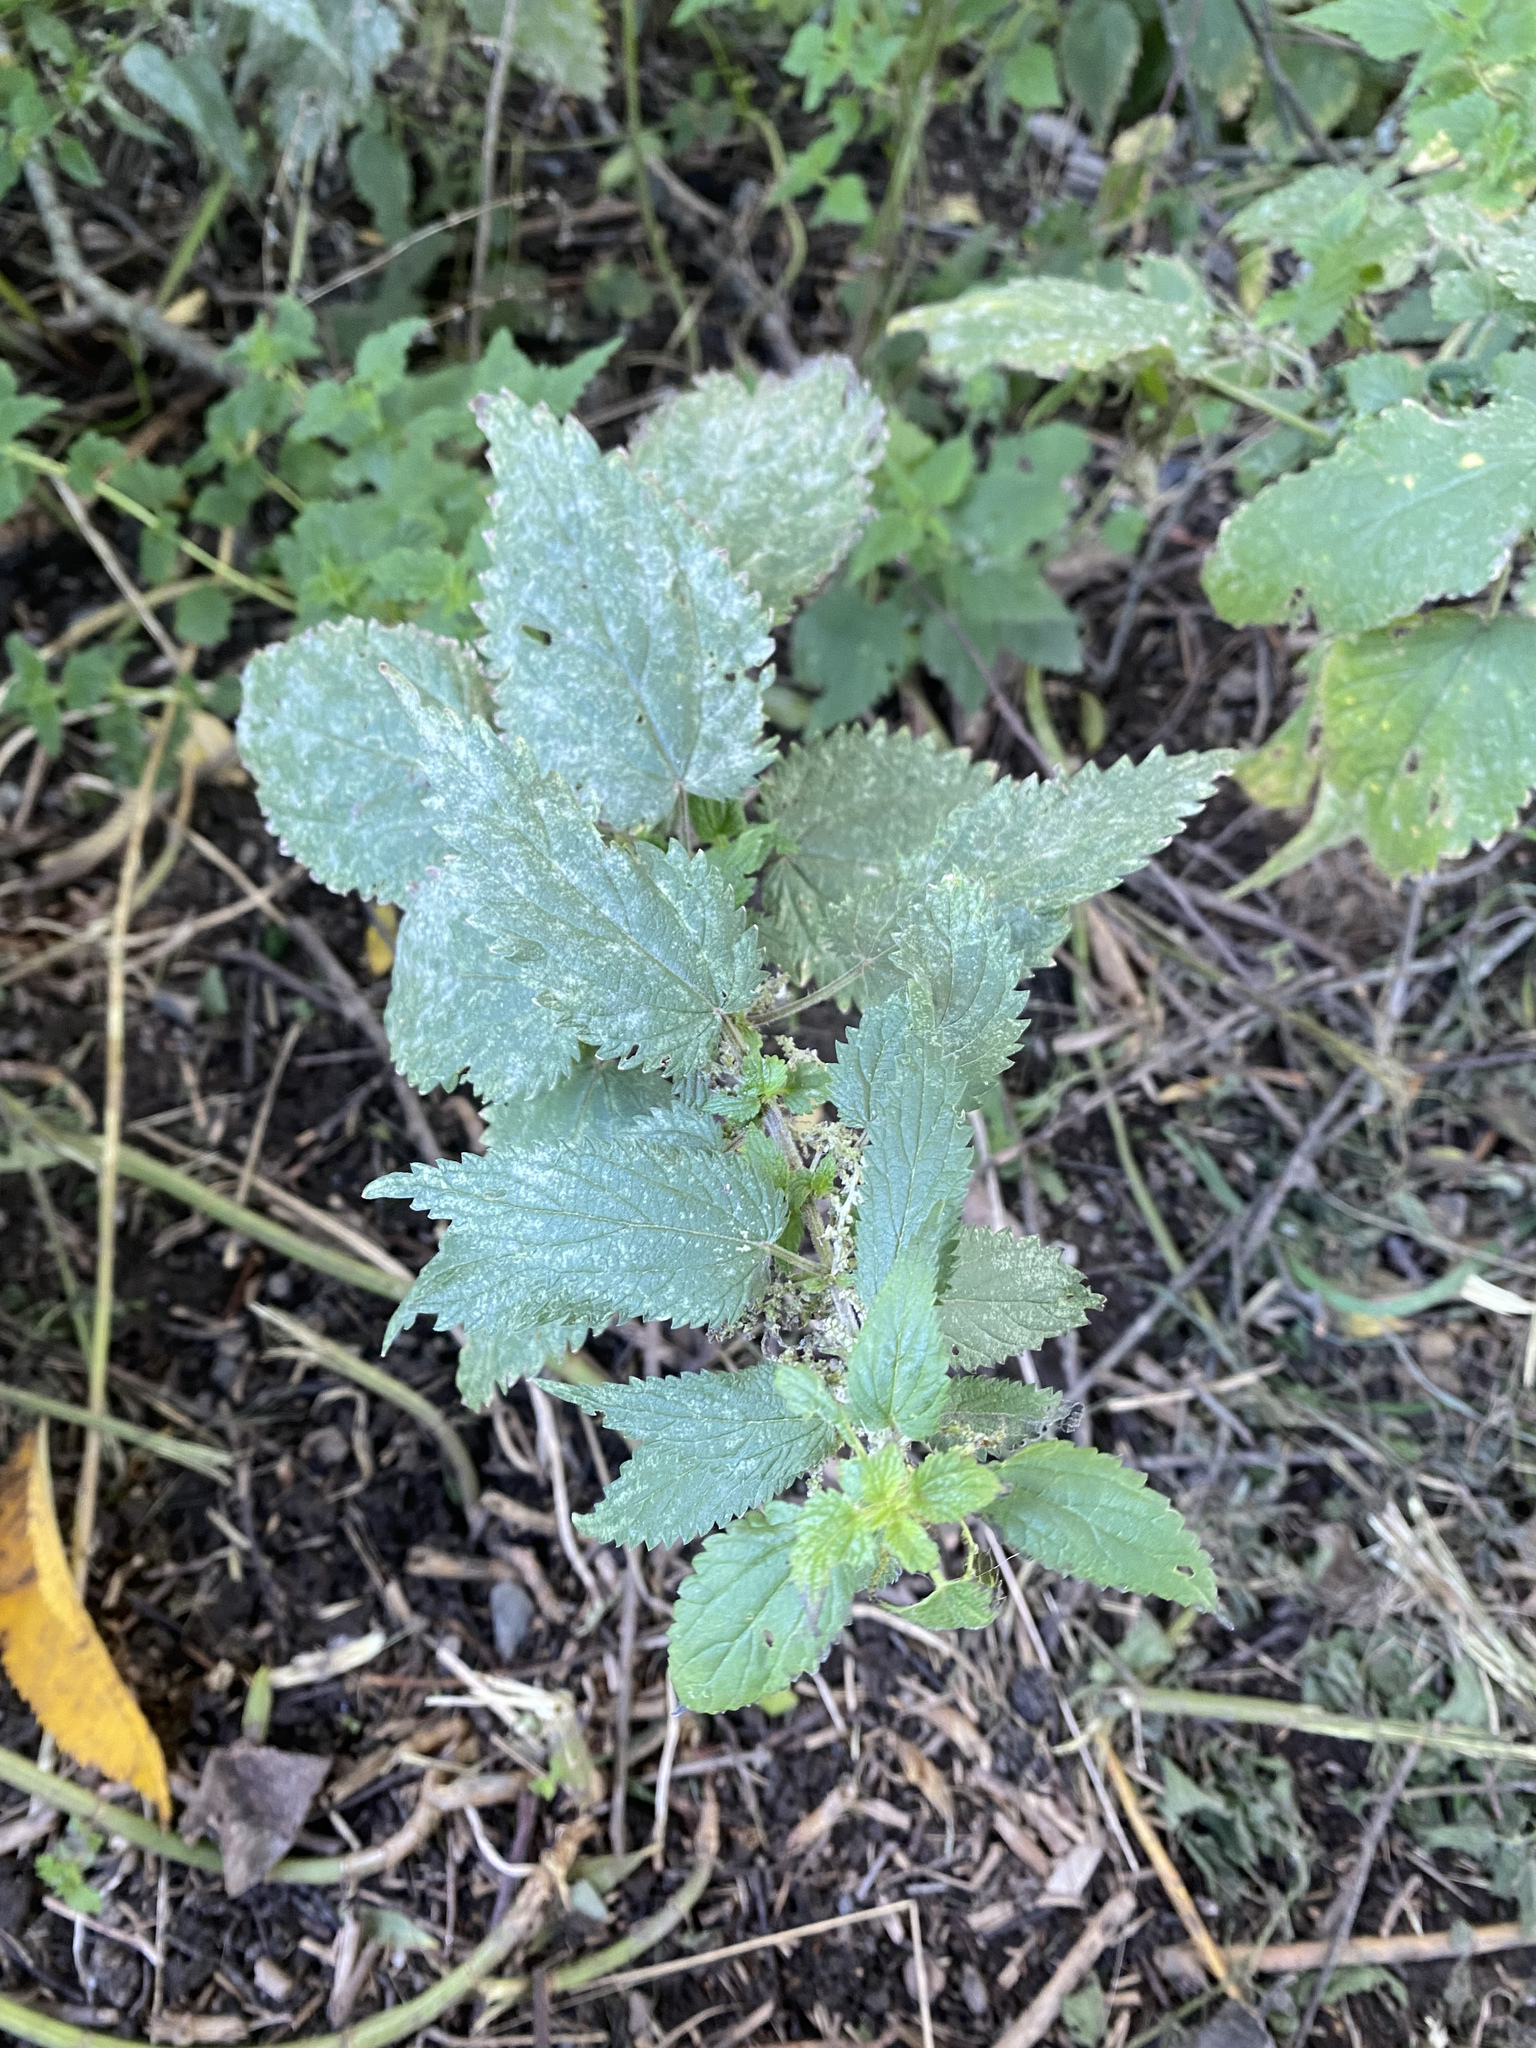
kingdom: Fungi
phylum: Ascomycota
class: Leotiomycetes
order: Helotiales
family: Erysiphaceae
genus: Erysiphe
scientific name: Erysiphe urticae
